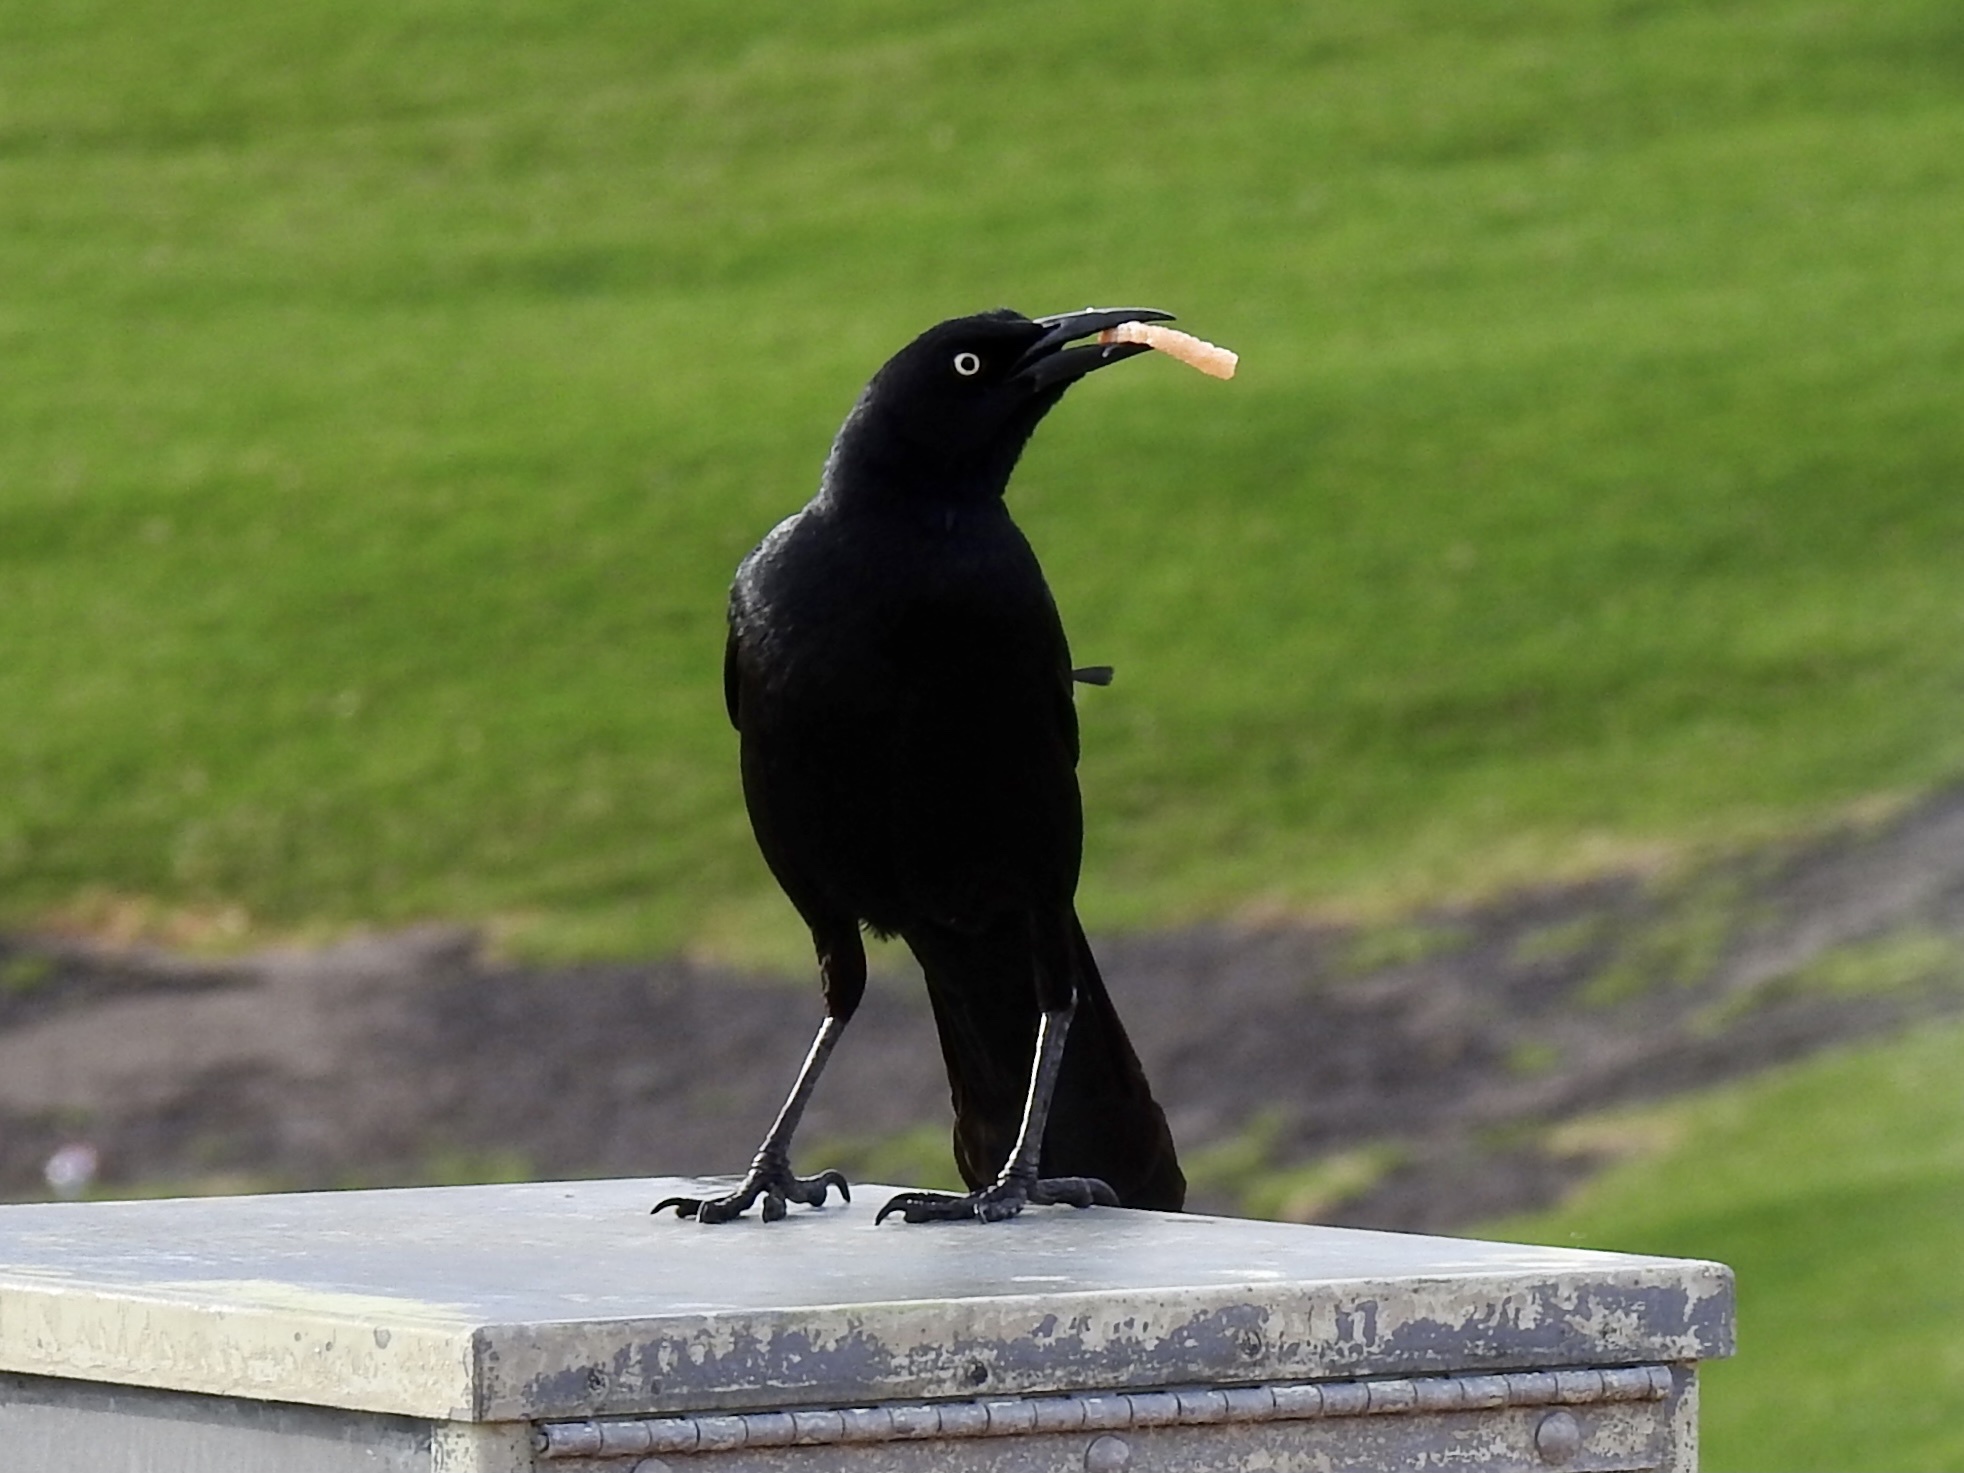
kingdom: Animalia
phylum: Chordata
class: Aves
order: Passeriformes
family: Icteridae
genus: Quiscalus
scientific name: Quiscalus mexicanus
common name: Great-tailed grackle
